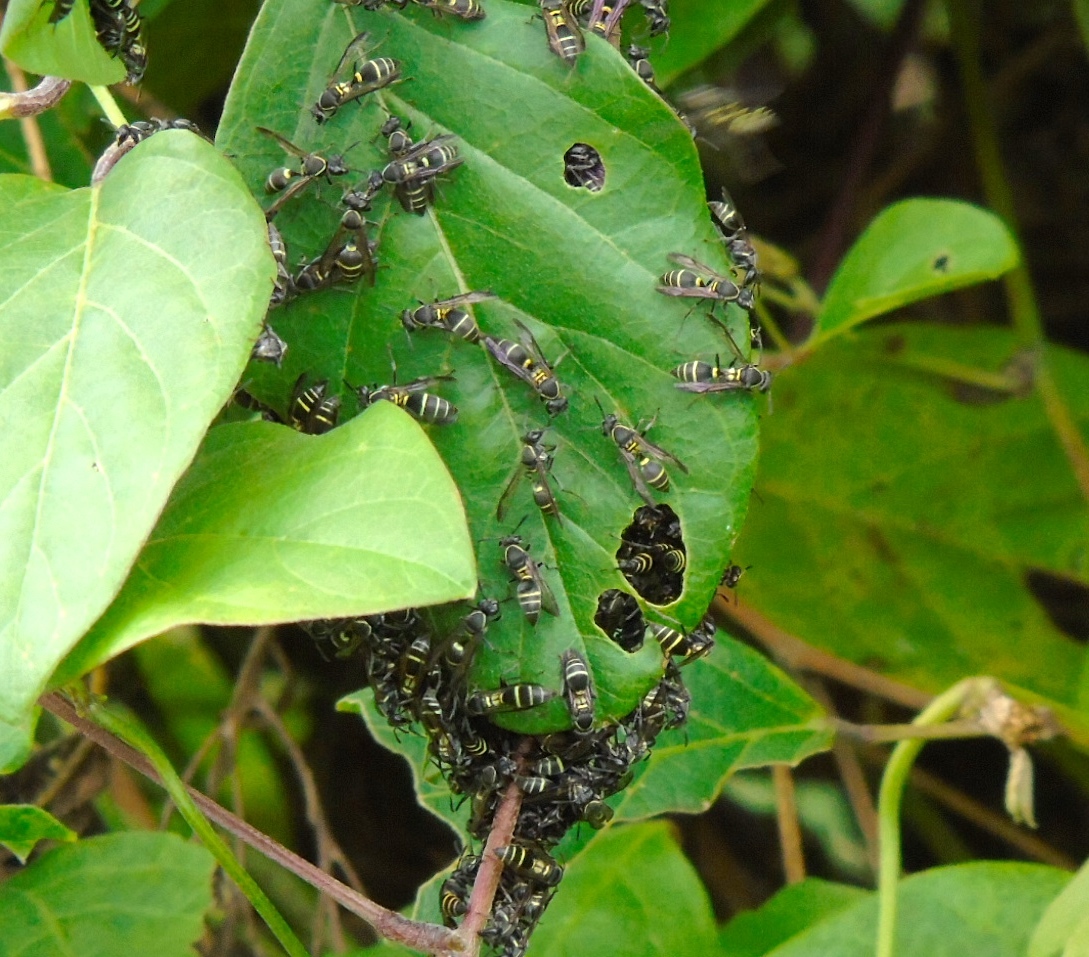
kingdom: Animalia
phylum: Arthropoda
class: Insecta
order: Hymenoptera
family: Vespidae
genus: Myrapetra
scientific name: Myrapetra
